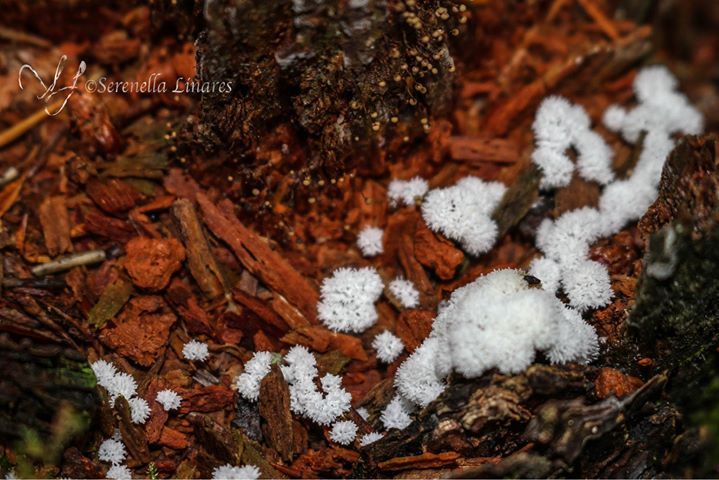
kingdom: Protozoa
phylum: Mycetozoa
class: Protosteliomycetes
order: Ceratiomyxales
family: Ceratiomyxaceae
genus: Ceratiomyxa
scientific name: Ceratiomyxa fruticulosa
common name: Honeycomb coral slime mold
